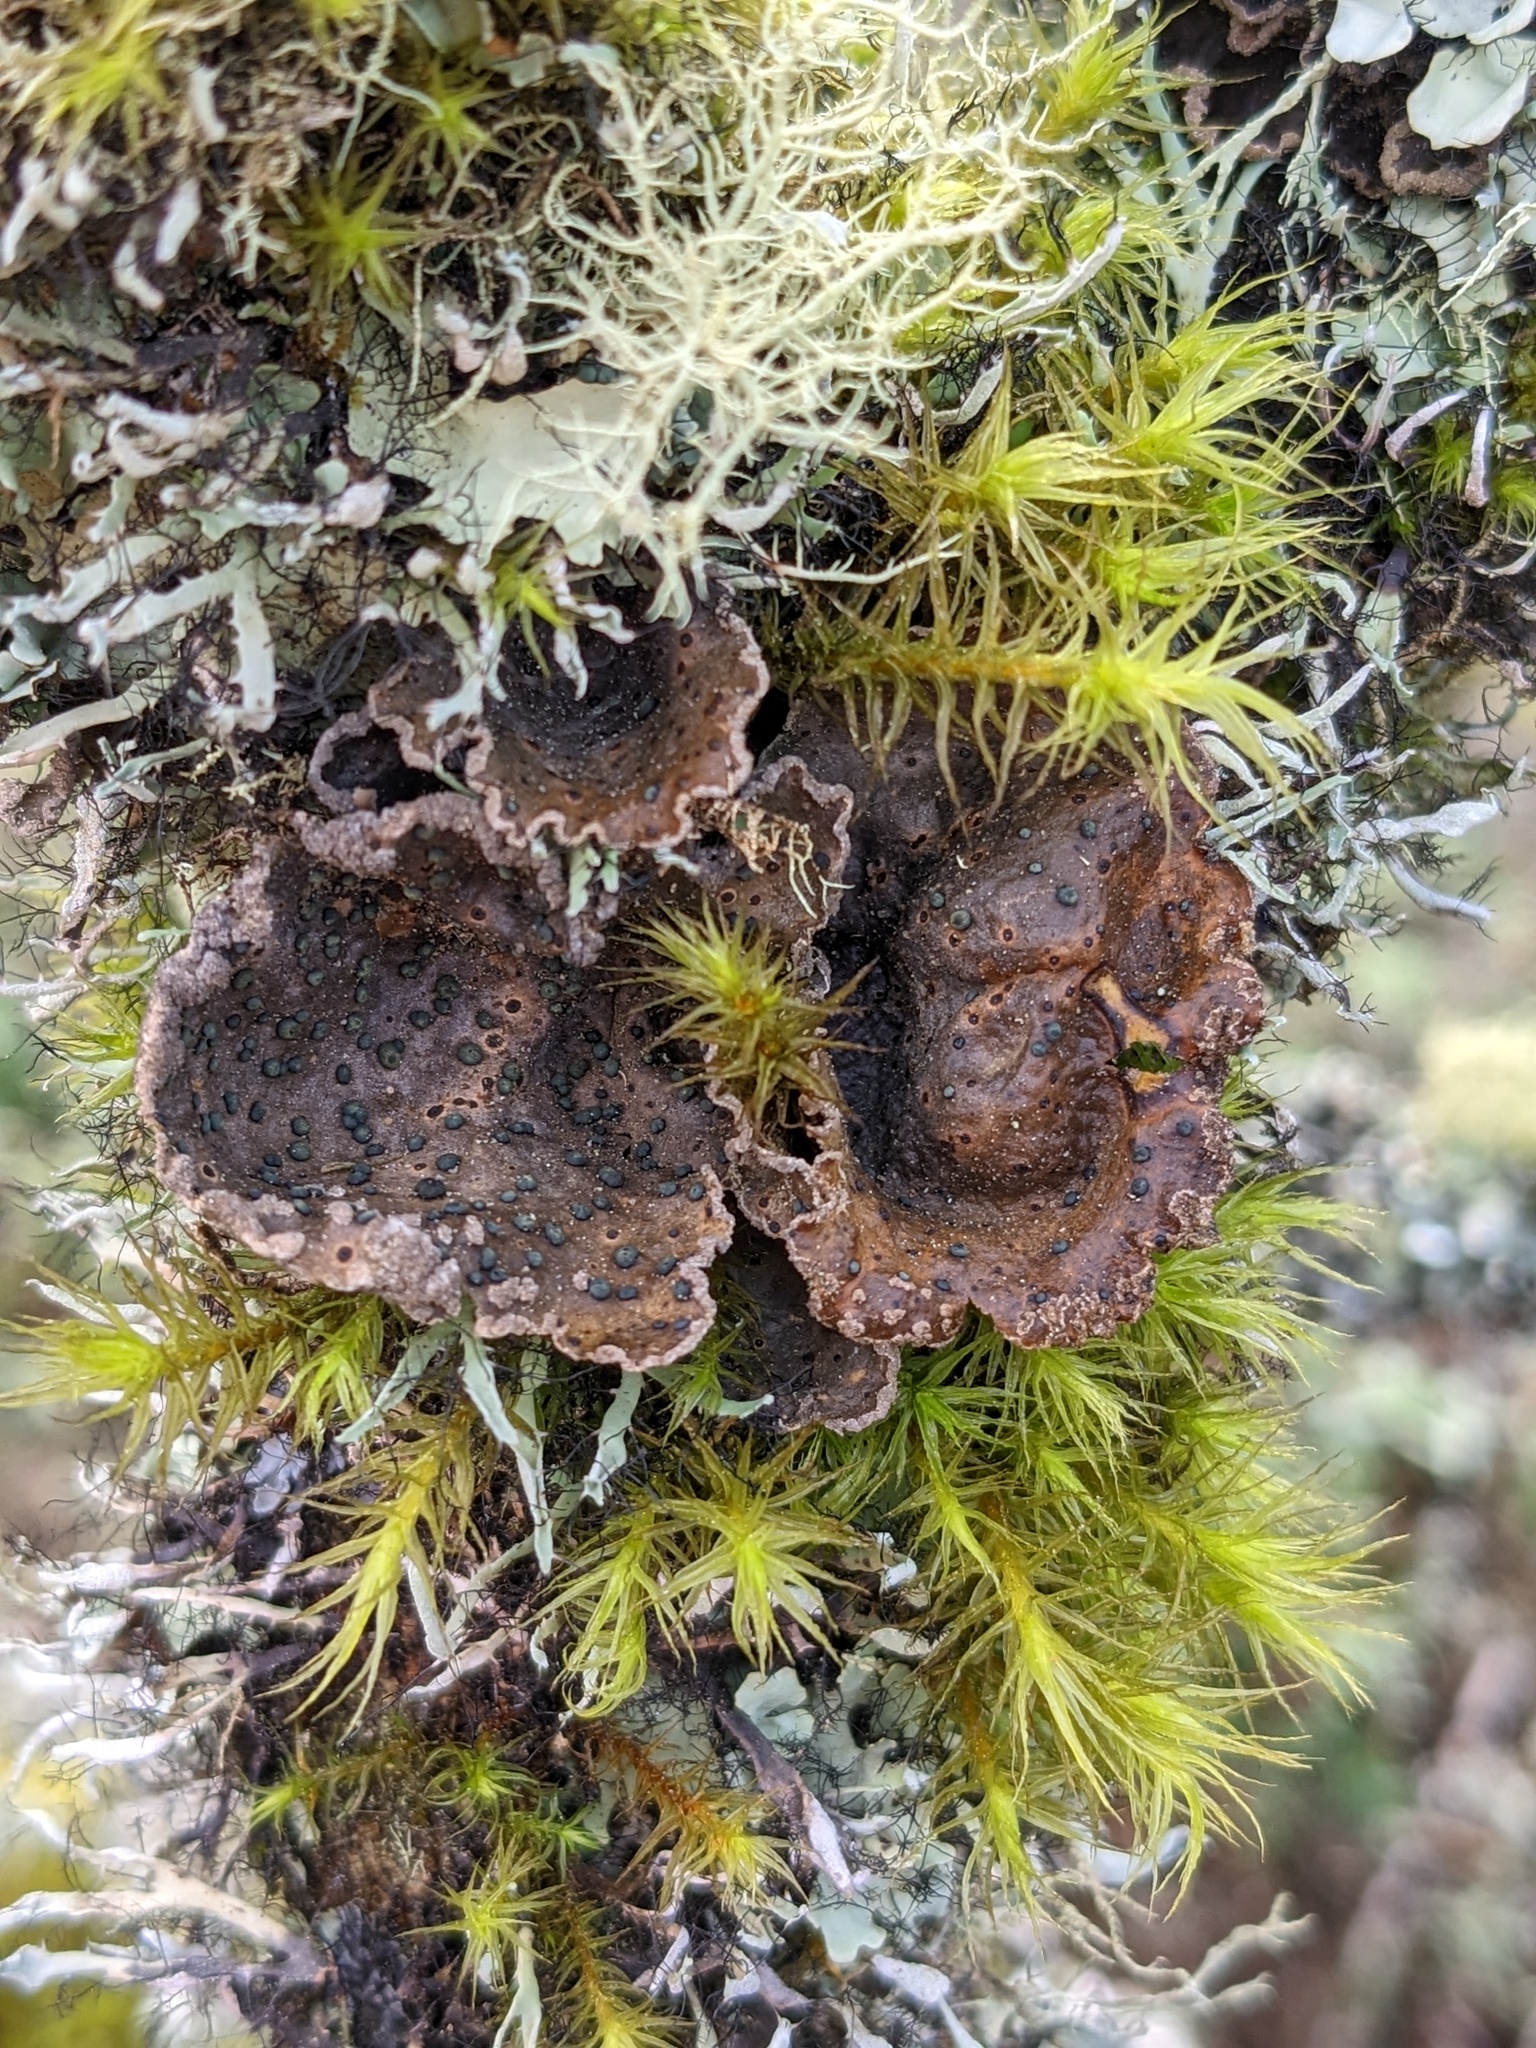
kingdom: Fungi
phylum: Ascomycota
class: Lecanoromycetes
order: Peltigerales
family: Lobariaceae
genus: Sticta
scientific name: Sticta limbata
